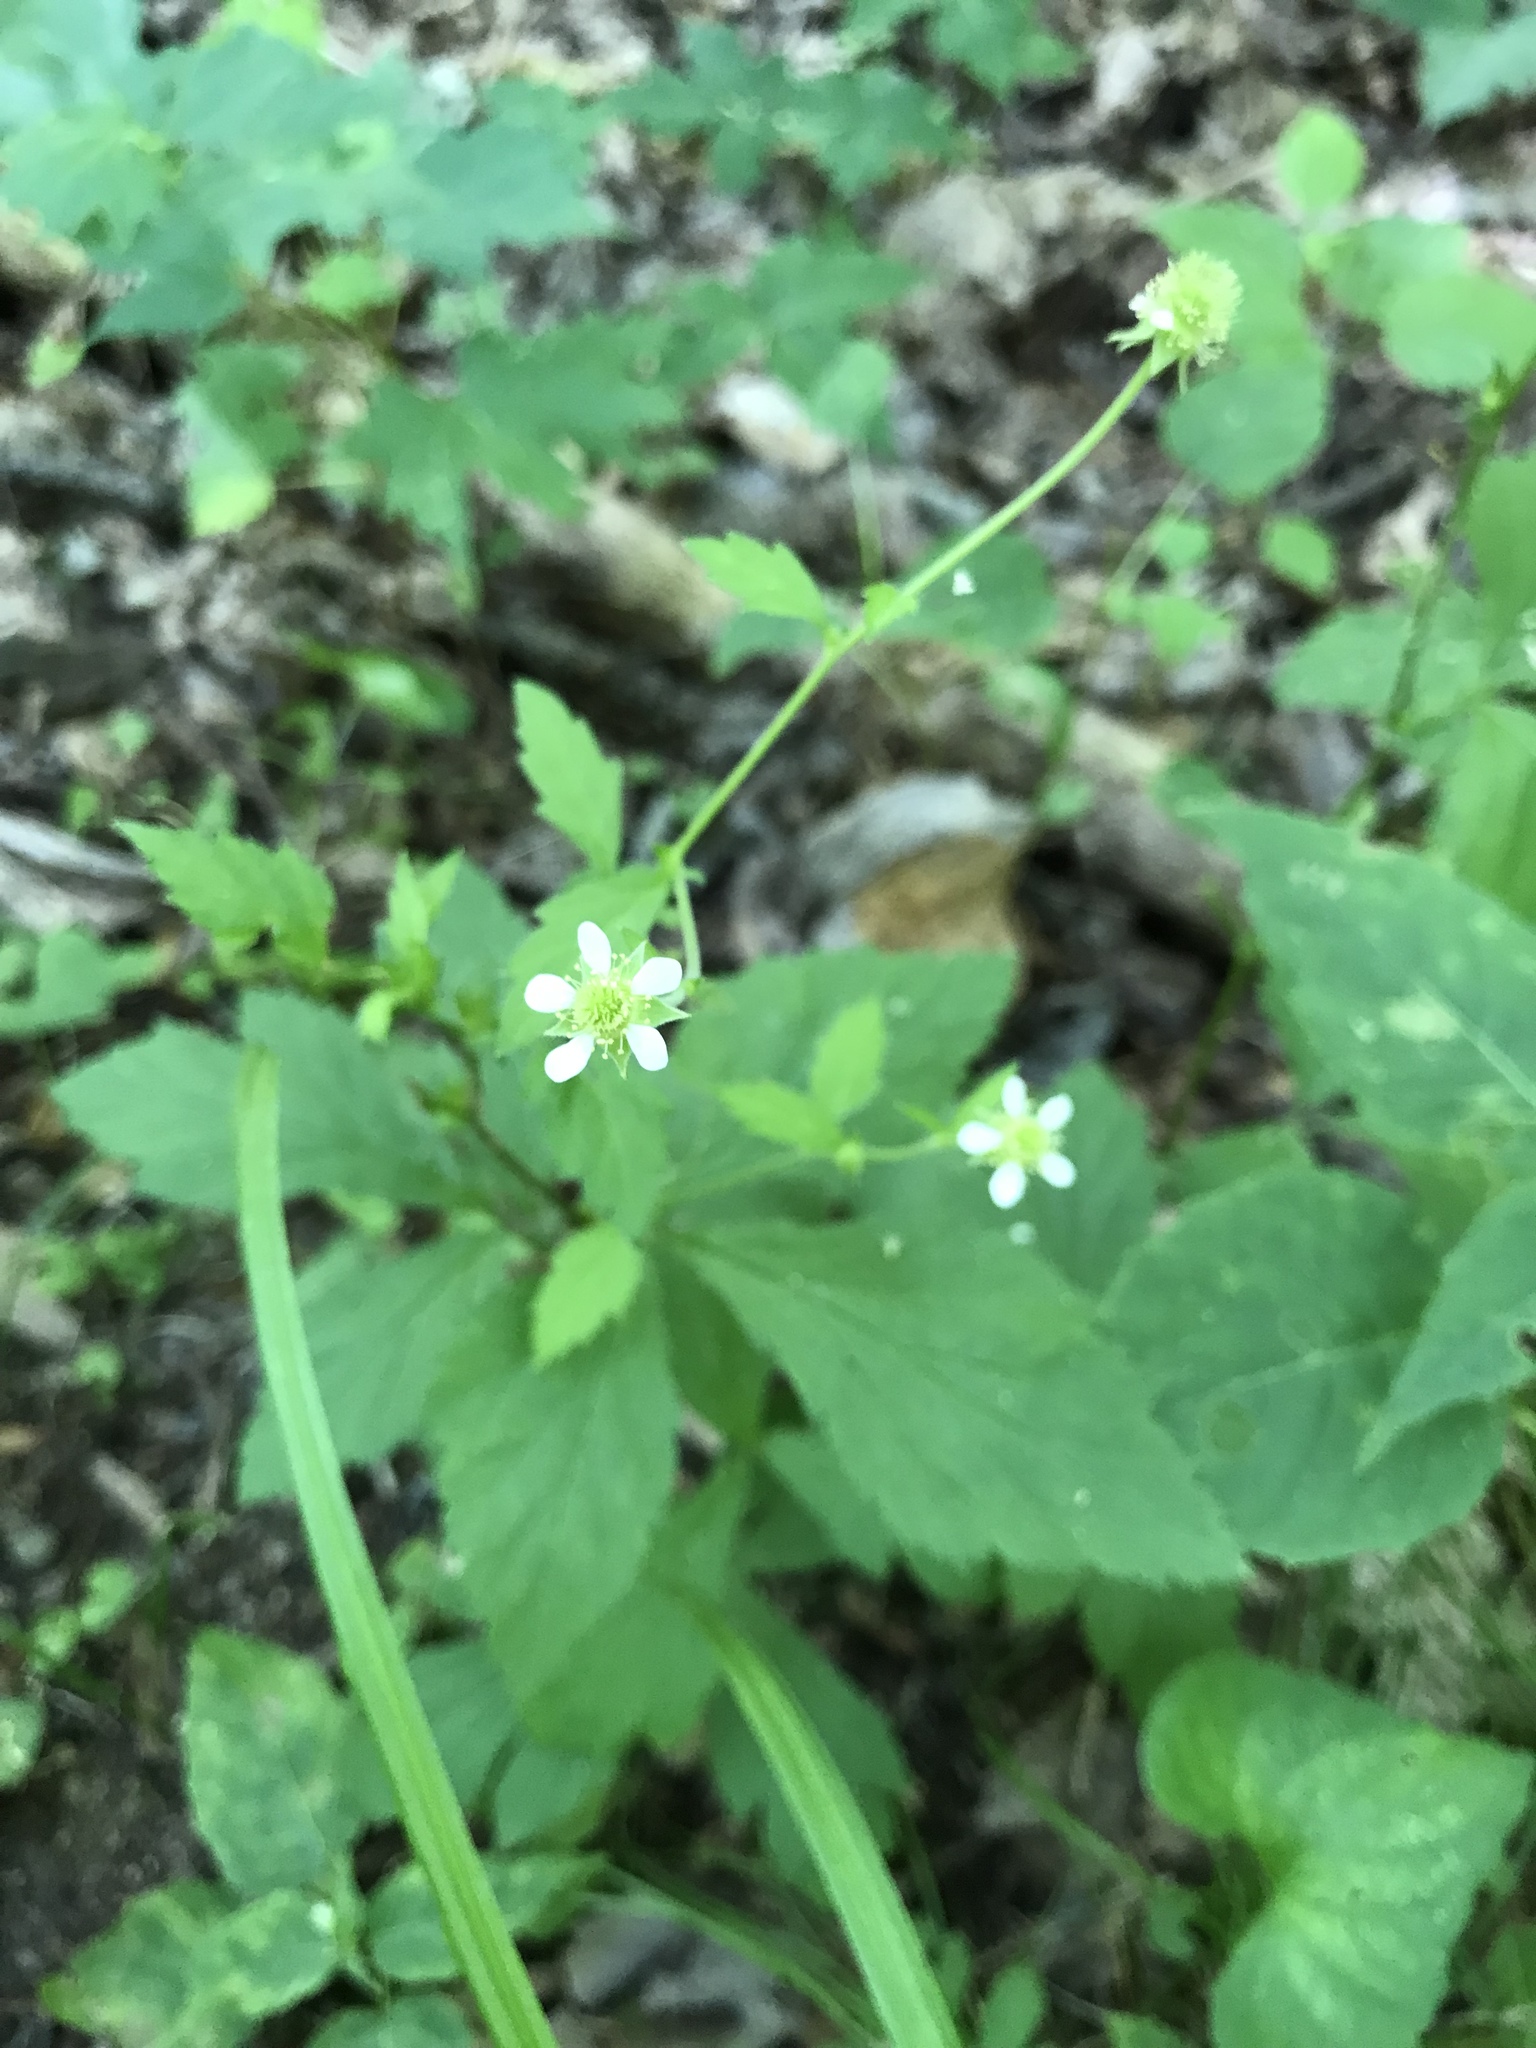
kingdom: Plantae
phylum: Tracheophyta
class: Magnoliopsida
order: Rosales
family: Rosaceae
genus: Geum
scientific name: Geum canadense
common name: White avens
